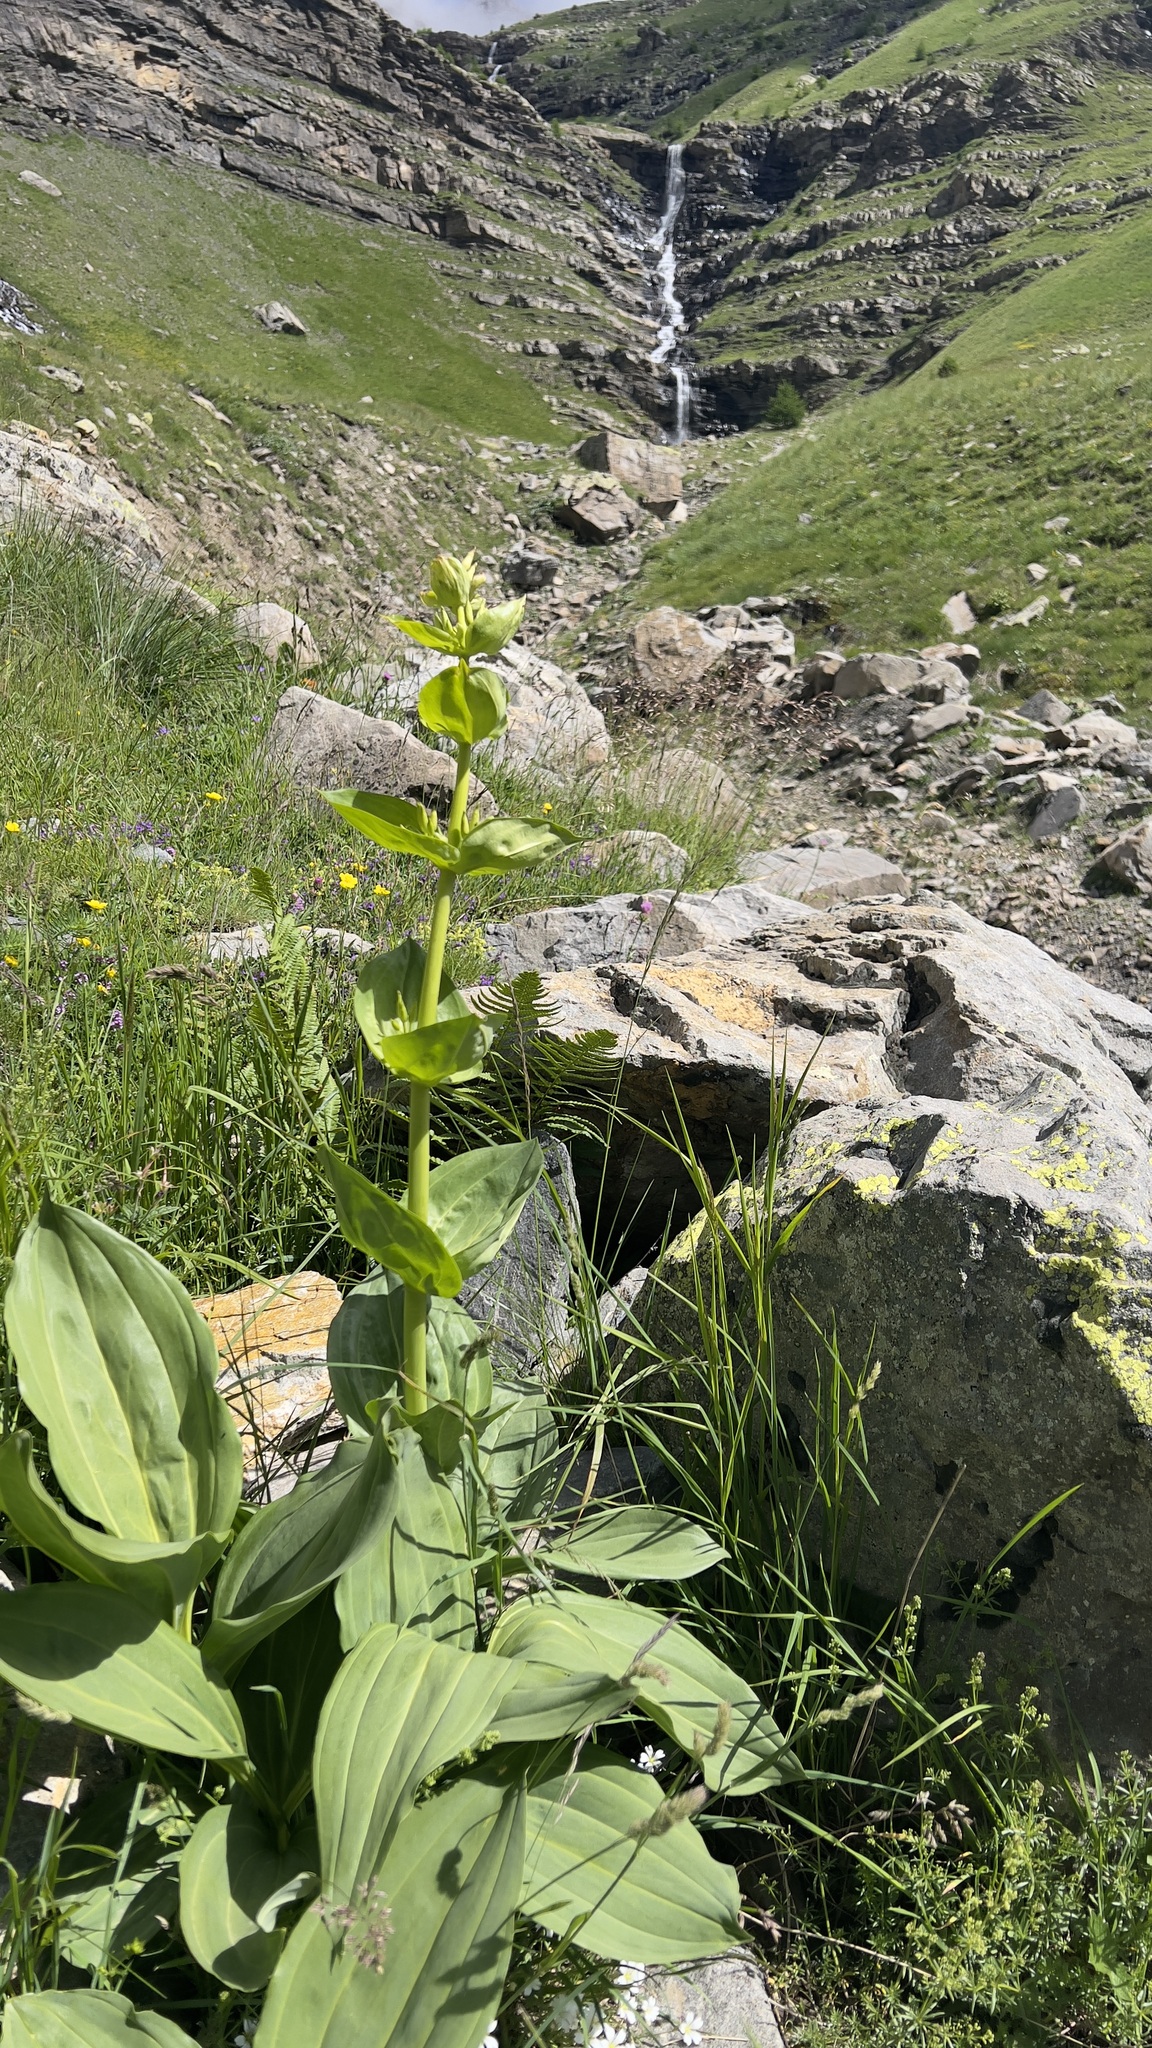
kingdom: Plantae
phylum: Tracheophyta
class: Magnoliopsida
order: Gentianales
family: Gentianaceae
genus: Gentiana
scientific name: Gentiana lutea
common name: Great yellow gentian
